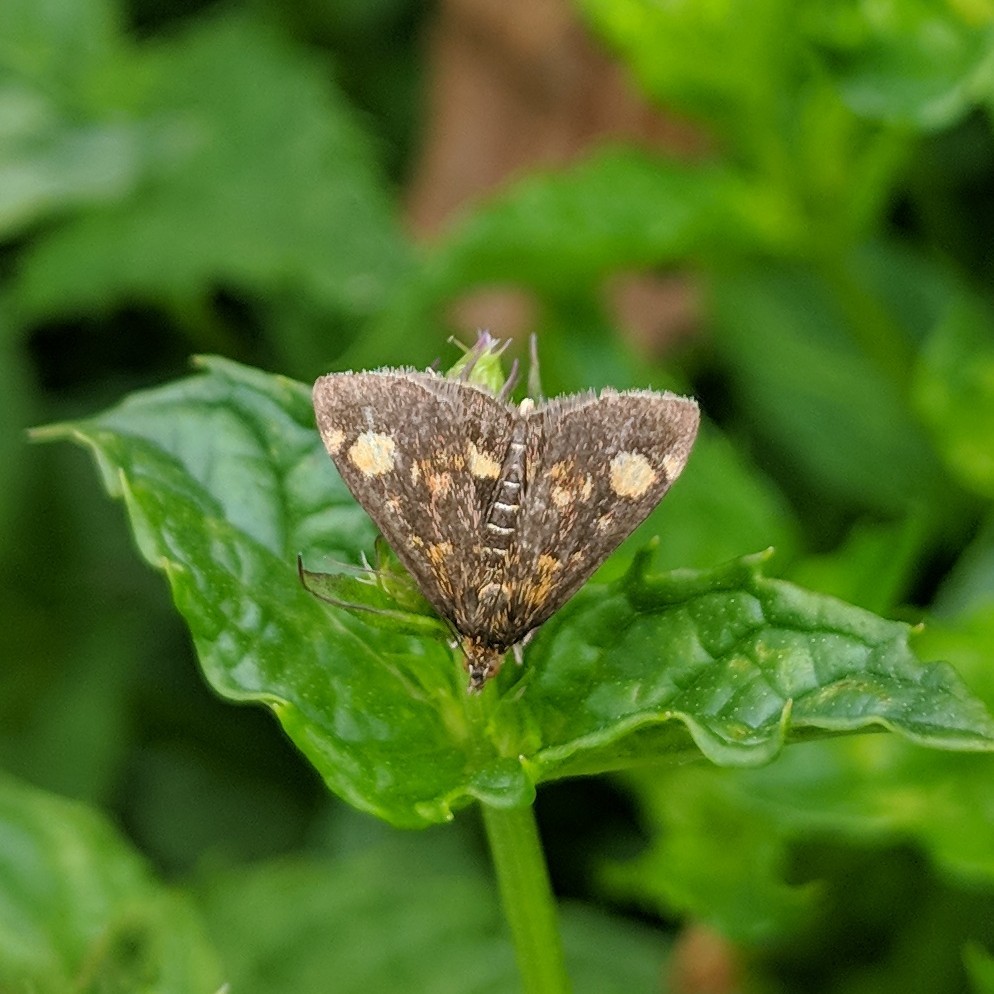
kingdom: Animalia
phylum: Arthropoda
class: Insecta
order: Lepidoptera
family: Crambidae
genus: Pyrausta
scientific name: Pyrausta aurata
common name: Small purple & gold
